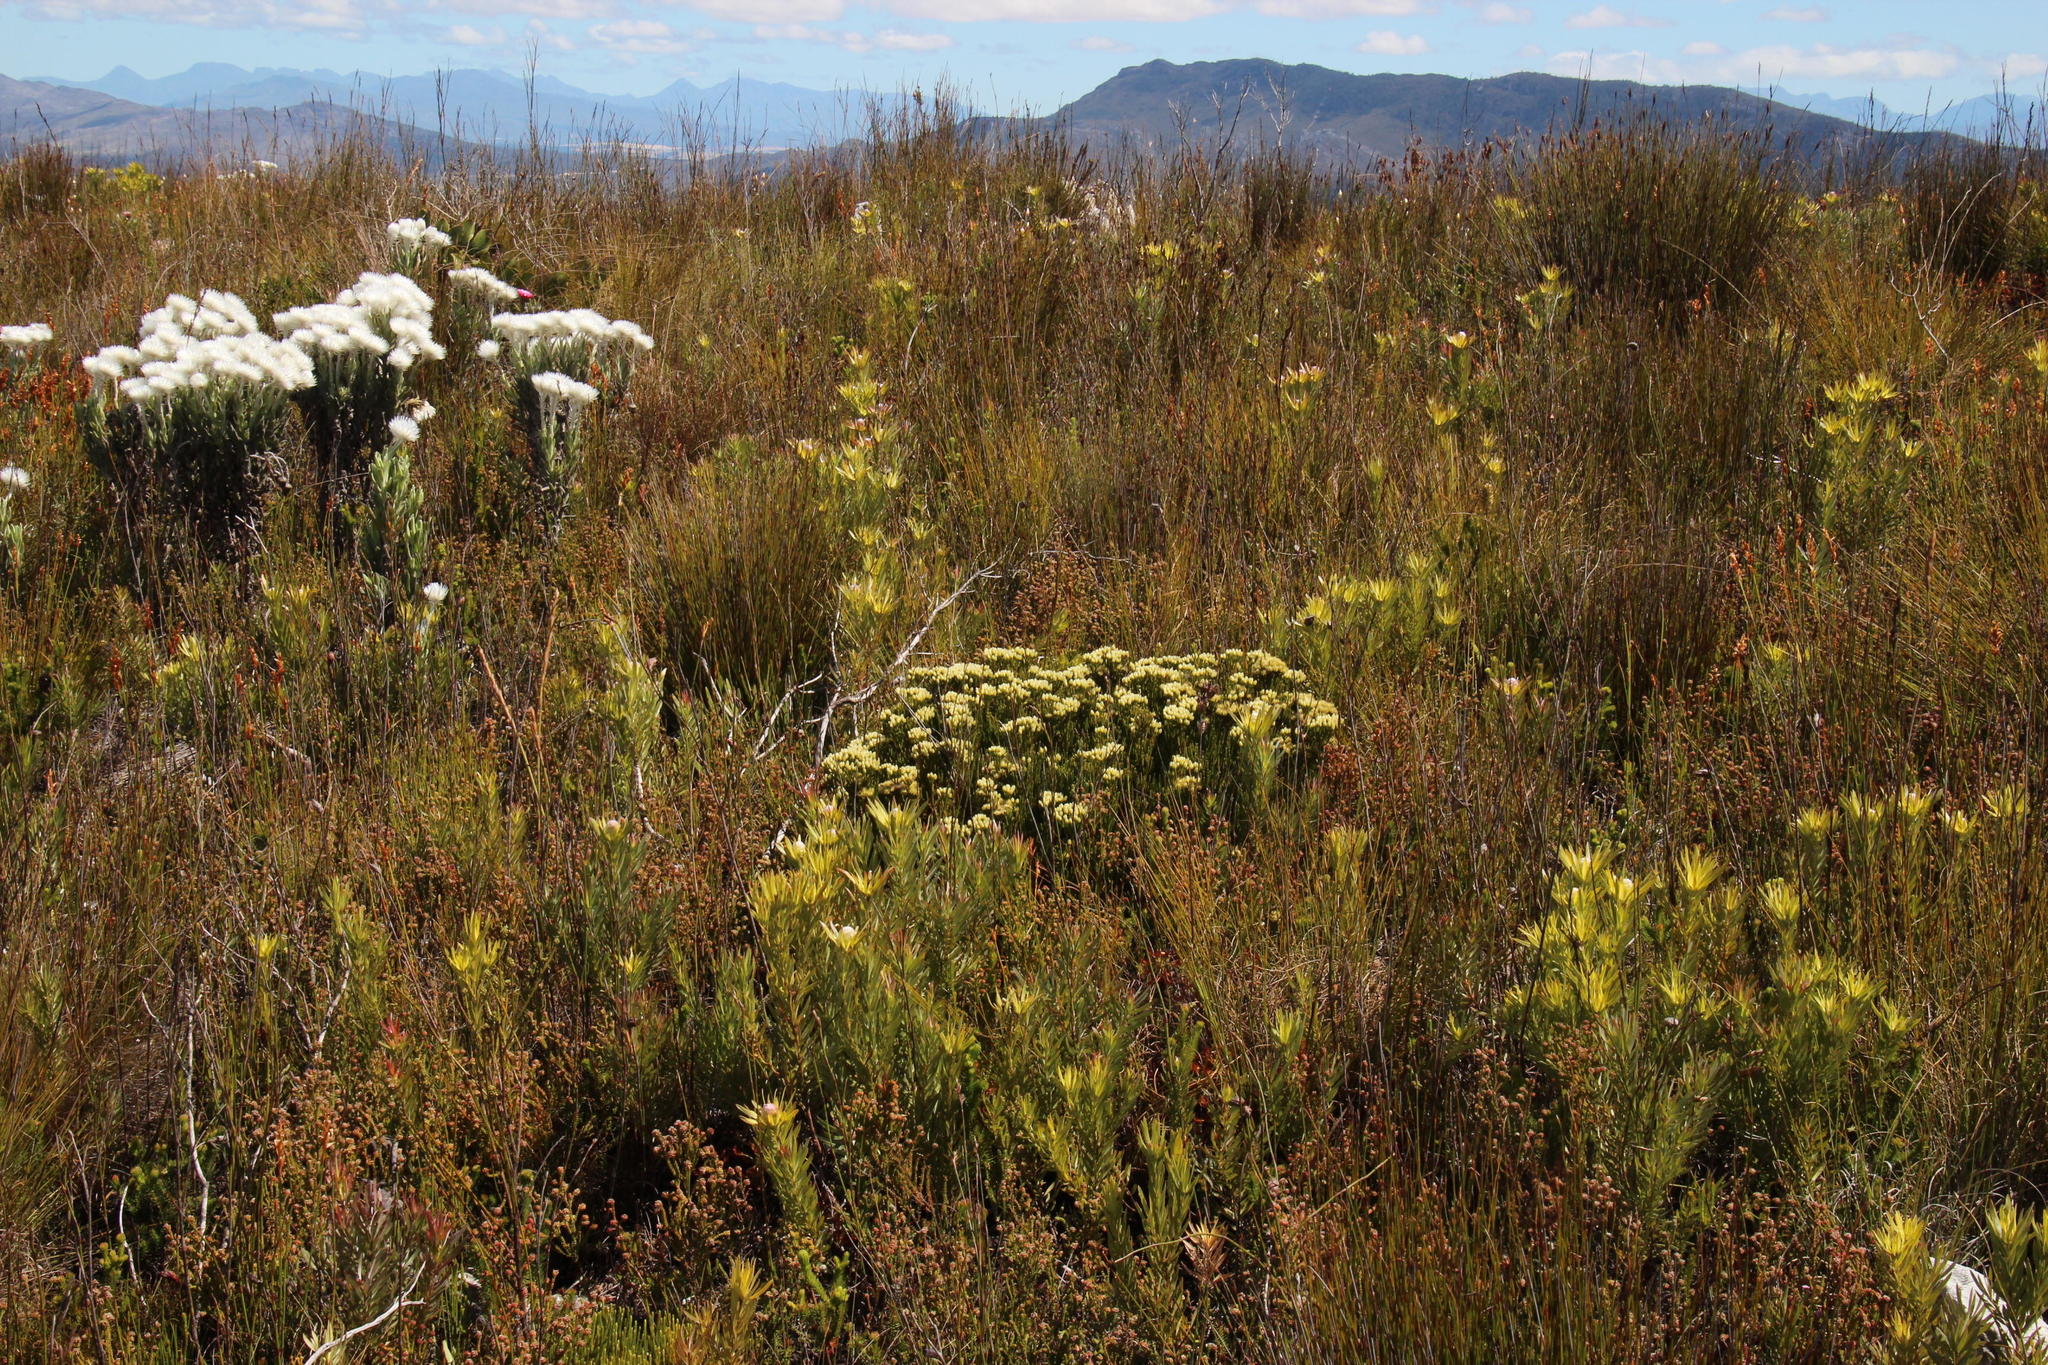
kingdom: Plantae
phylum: Tracheophyta
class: Magnoliopsida
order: Bruniales
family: Bruniaceae
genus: Brunia
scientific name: Brunia paleacea
